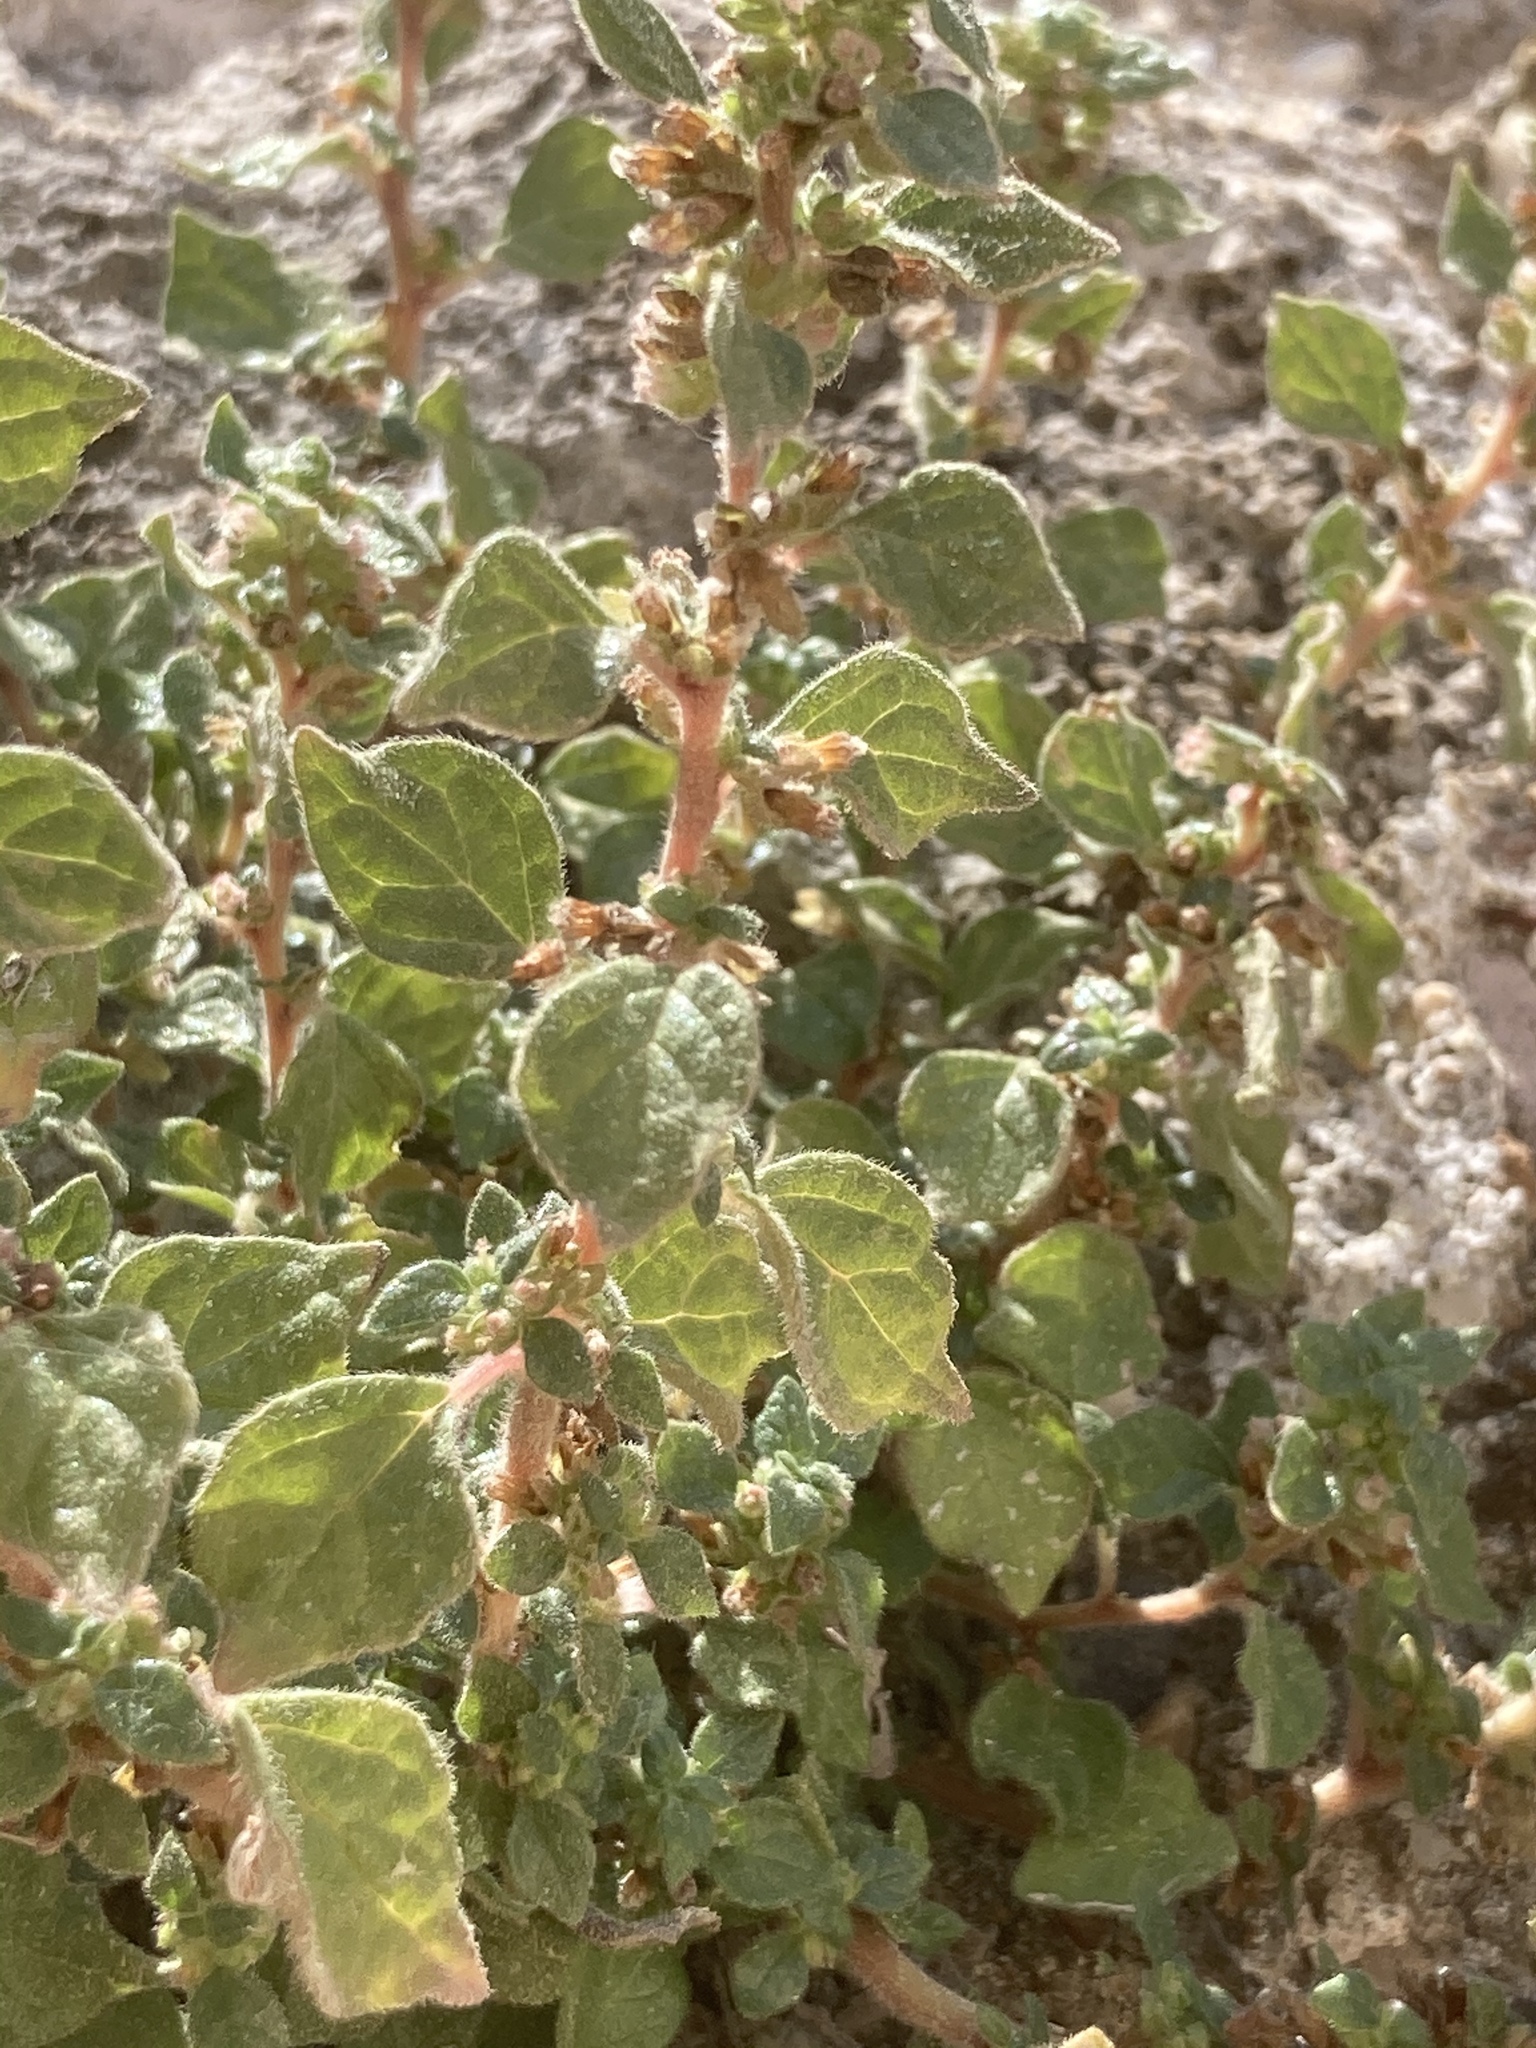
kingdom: Plantae
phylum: Tracheophyta
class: Magnoliopsida
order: Rosales
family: Urticaceae
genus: Parietaria
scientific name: Parietaria judaica
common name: Pellitory-of-the-wall
